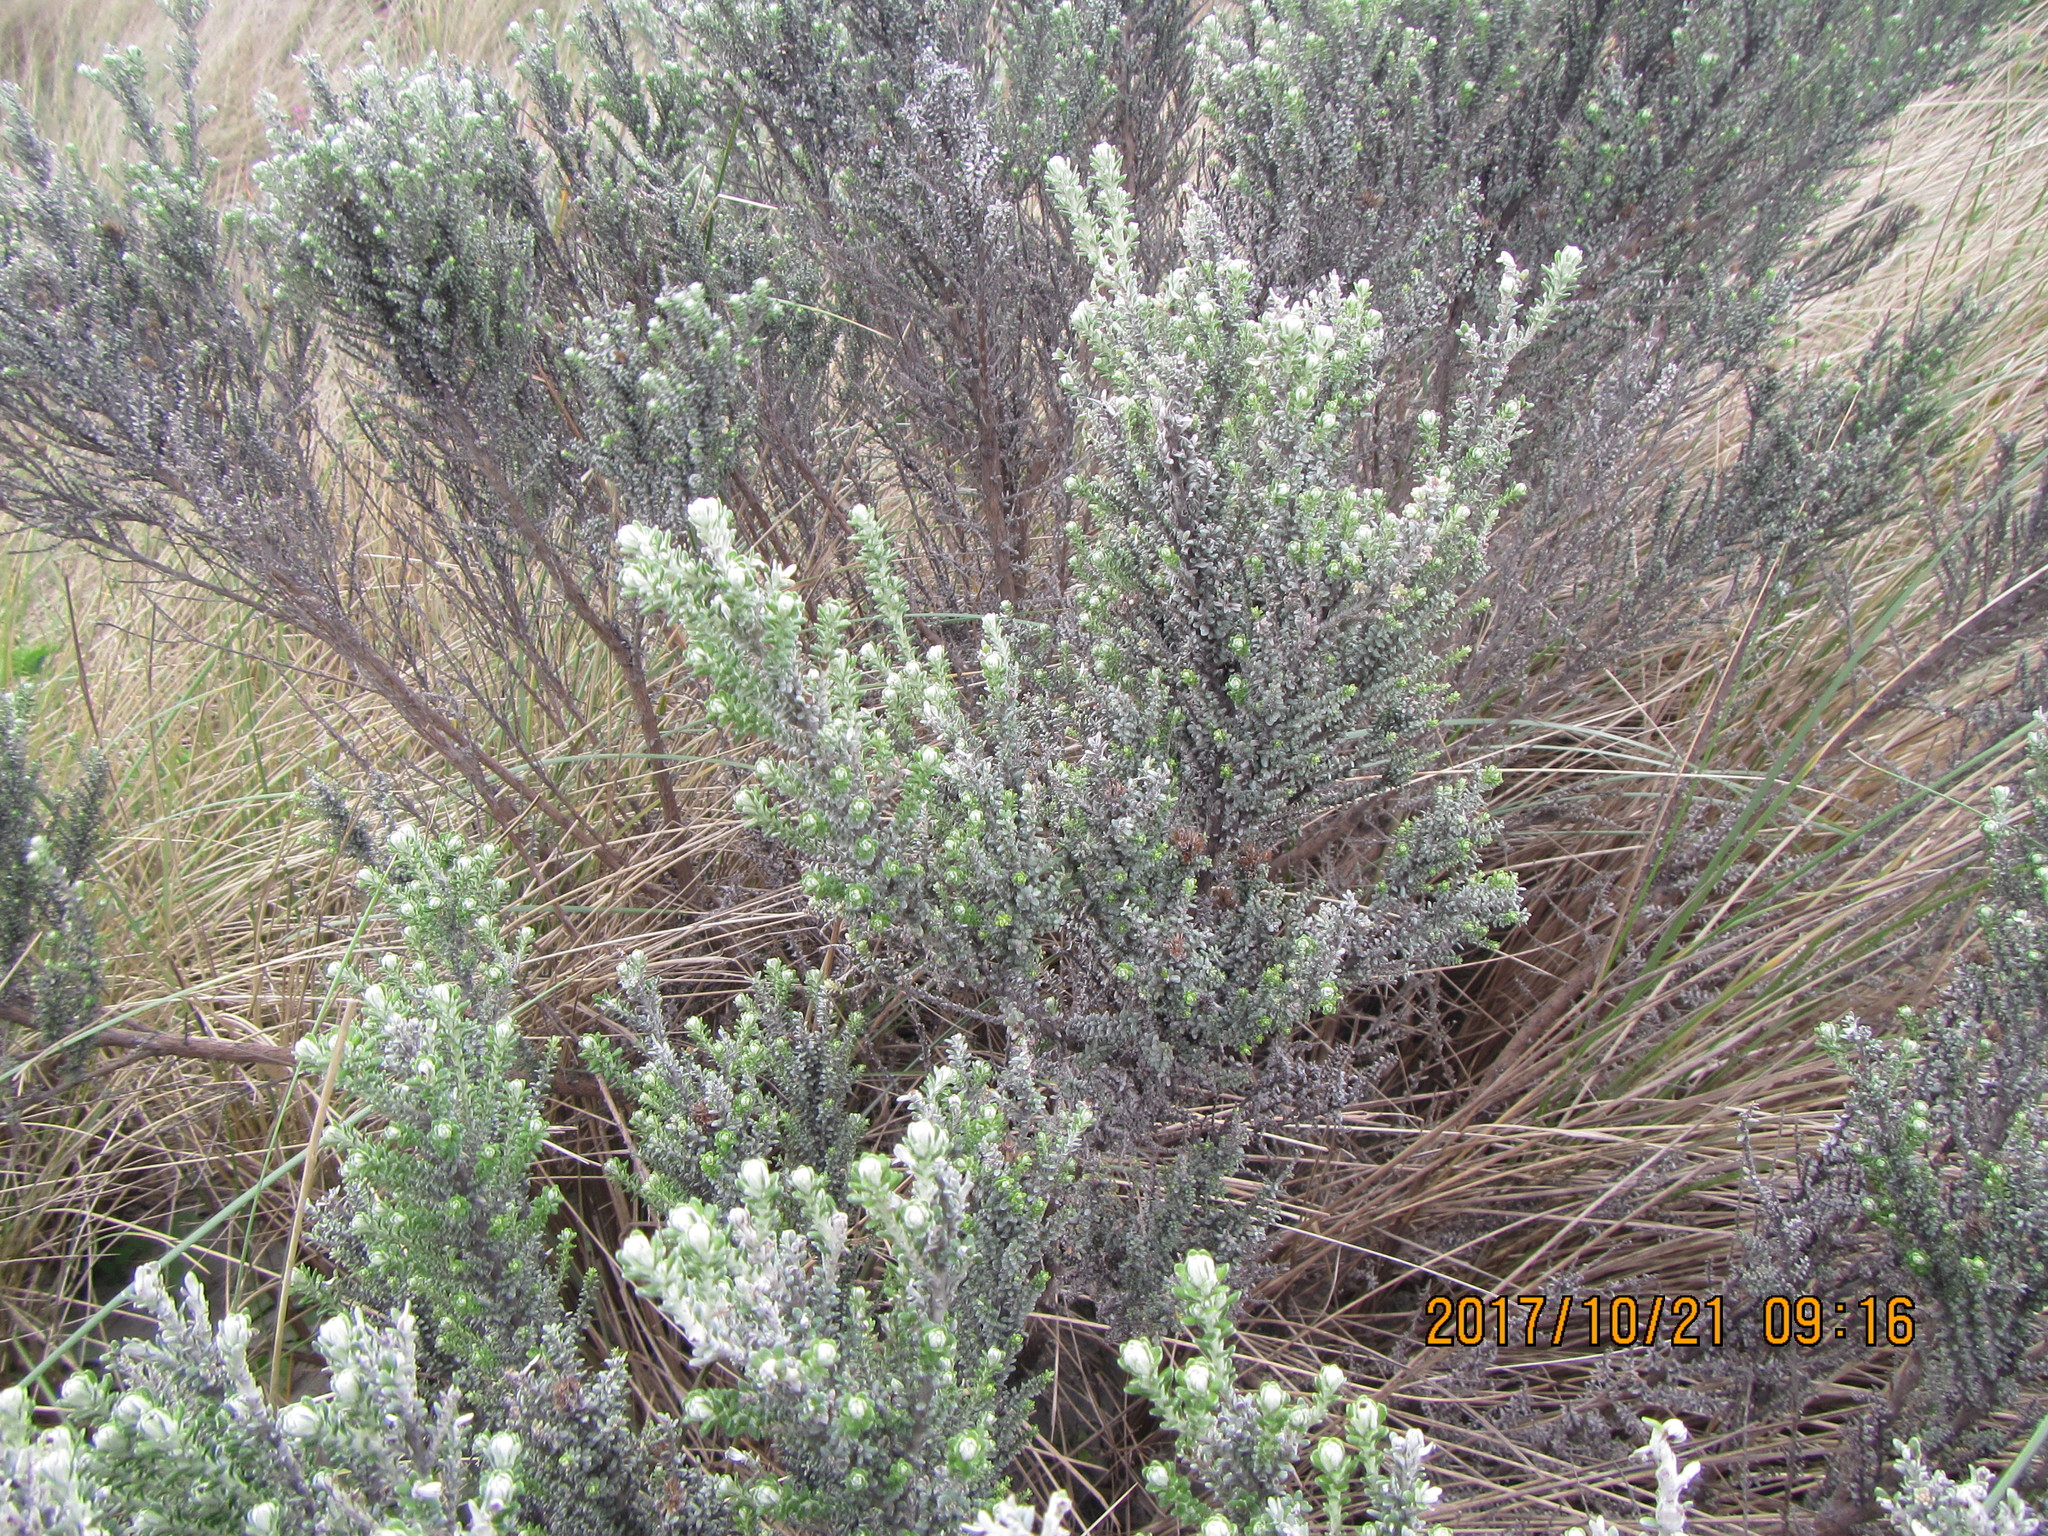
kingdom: Plantae
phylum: Tracheophyta
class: Magnoliopsida
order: Asterales
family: Asteraceae
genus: Ozothamnus
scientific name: Ozothamnus leptophyllus
